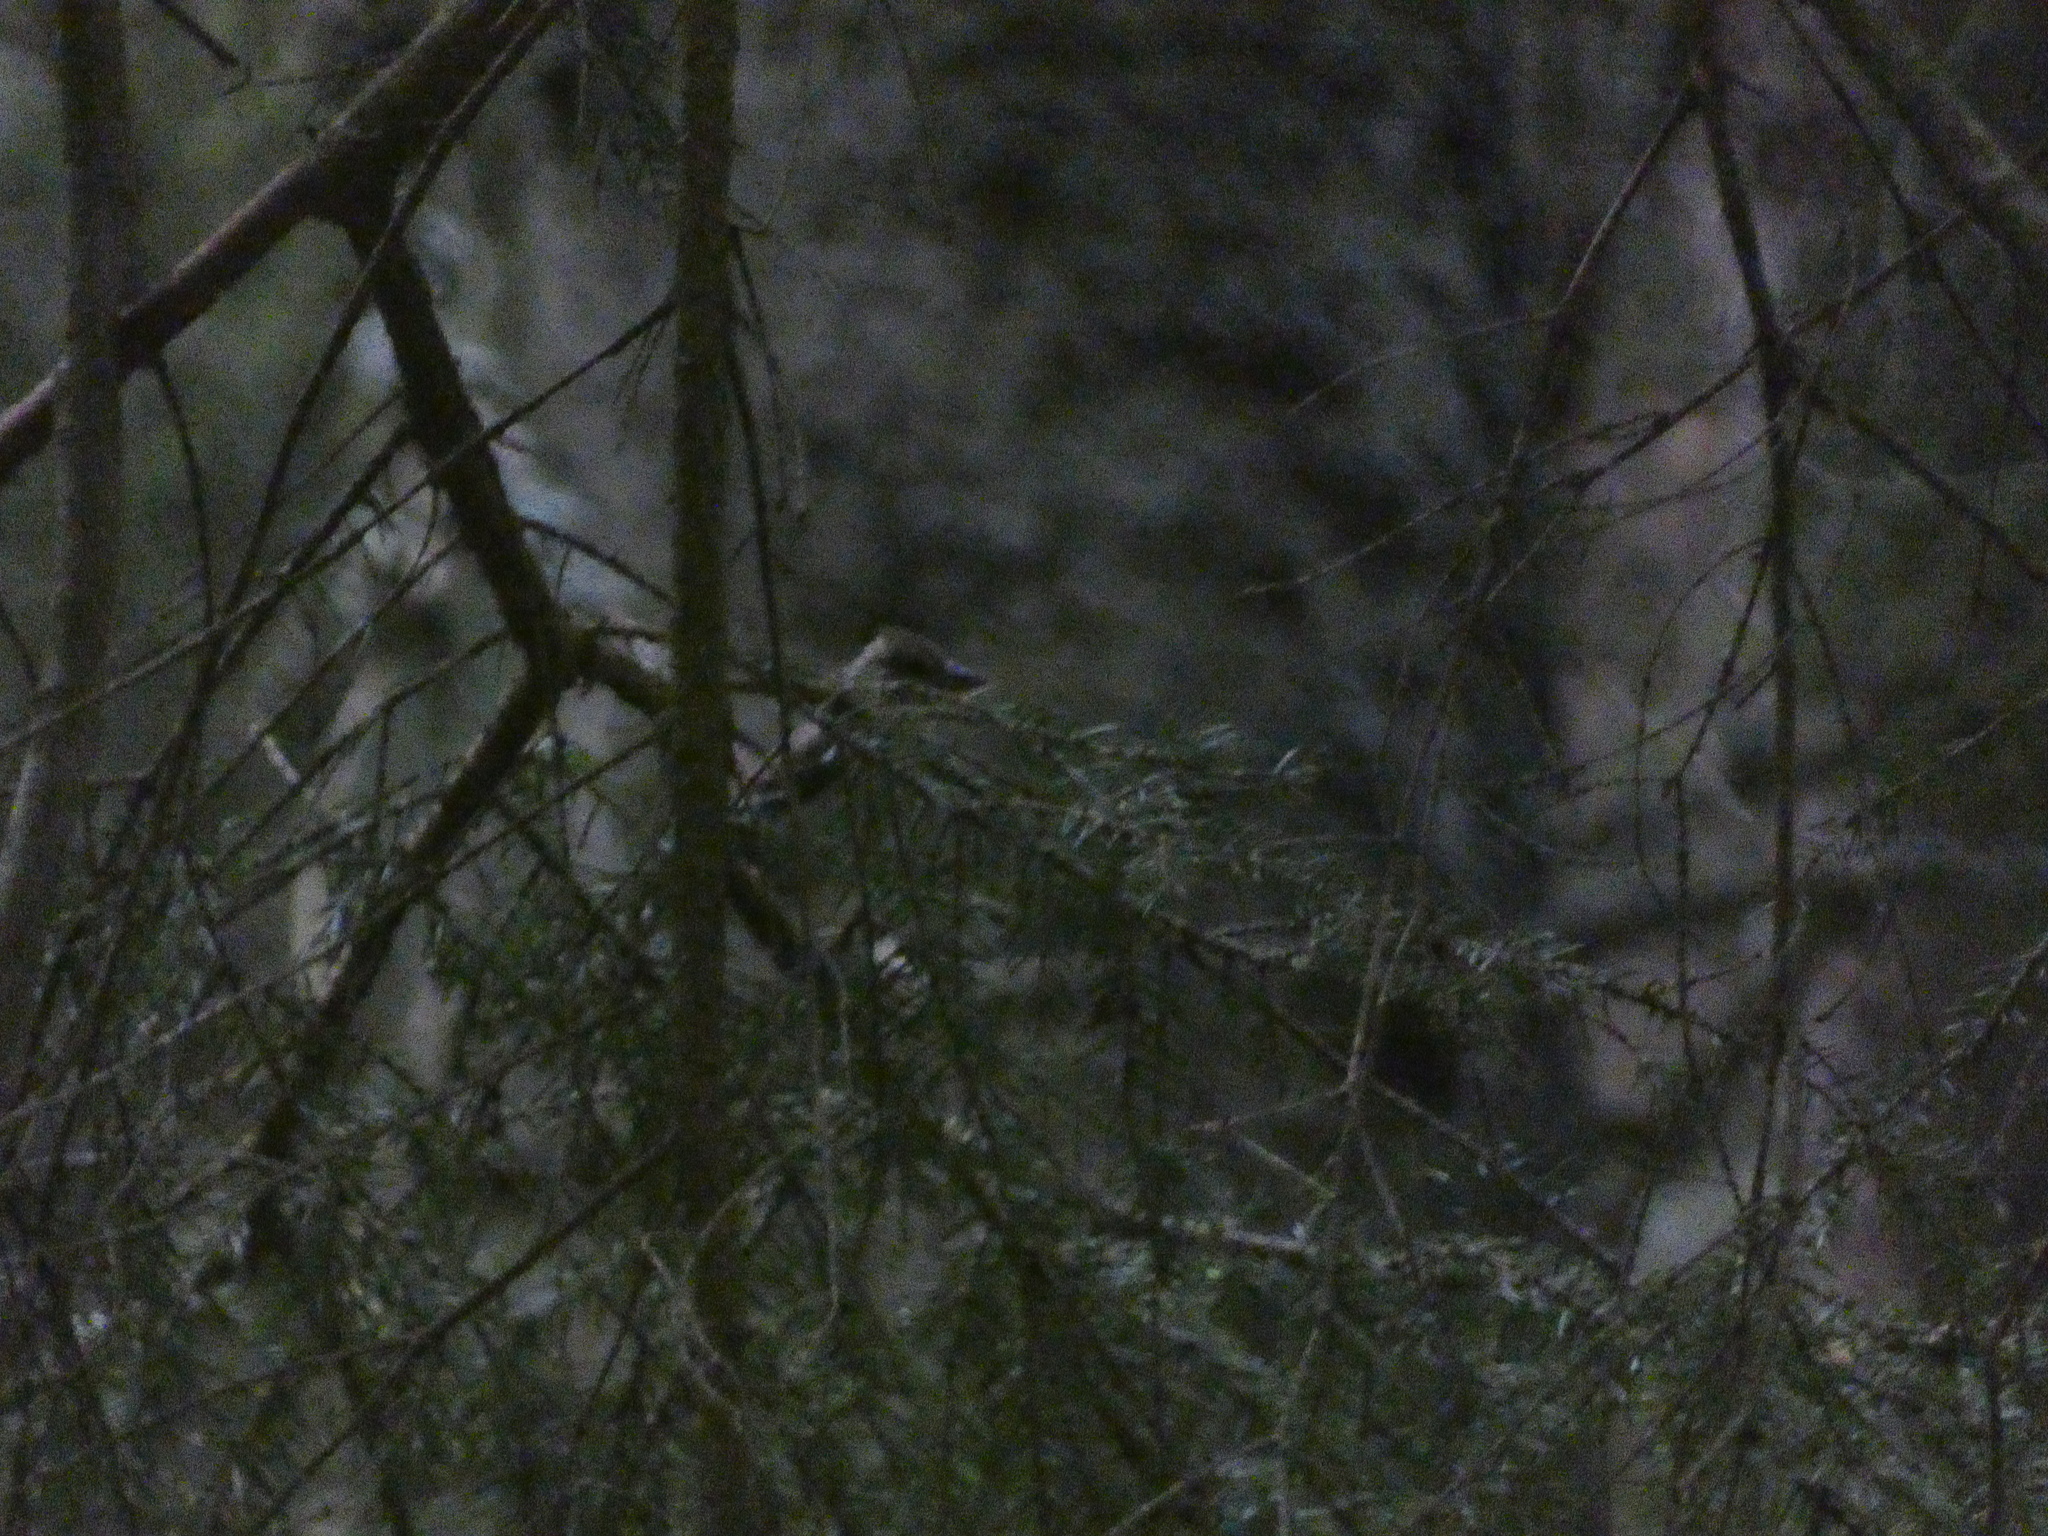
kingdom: Animalia
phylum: Chordata
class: Aves
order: Passeriformes
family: Fringillidae
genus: Fringilla
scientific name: Fringilla coelebs
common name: Common chaffinch
